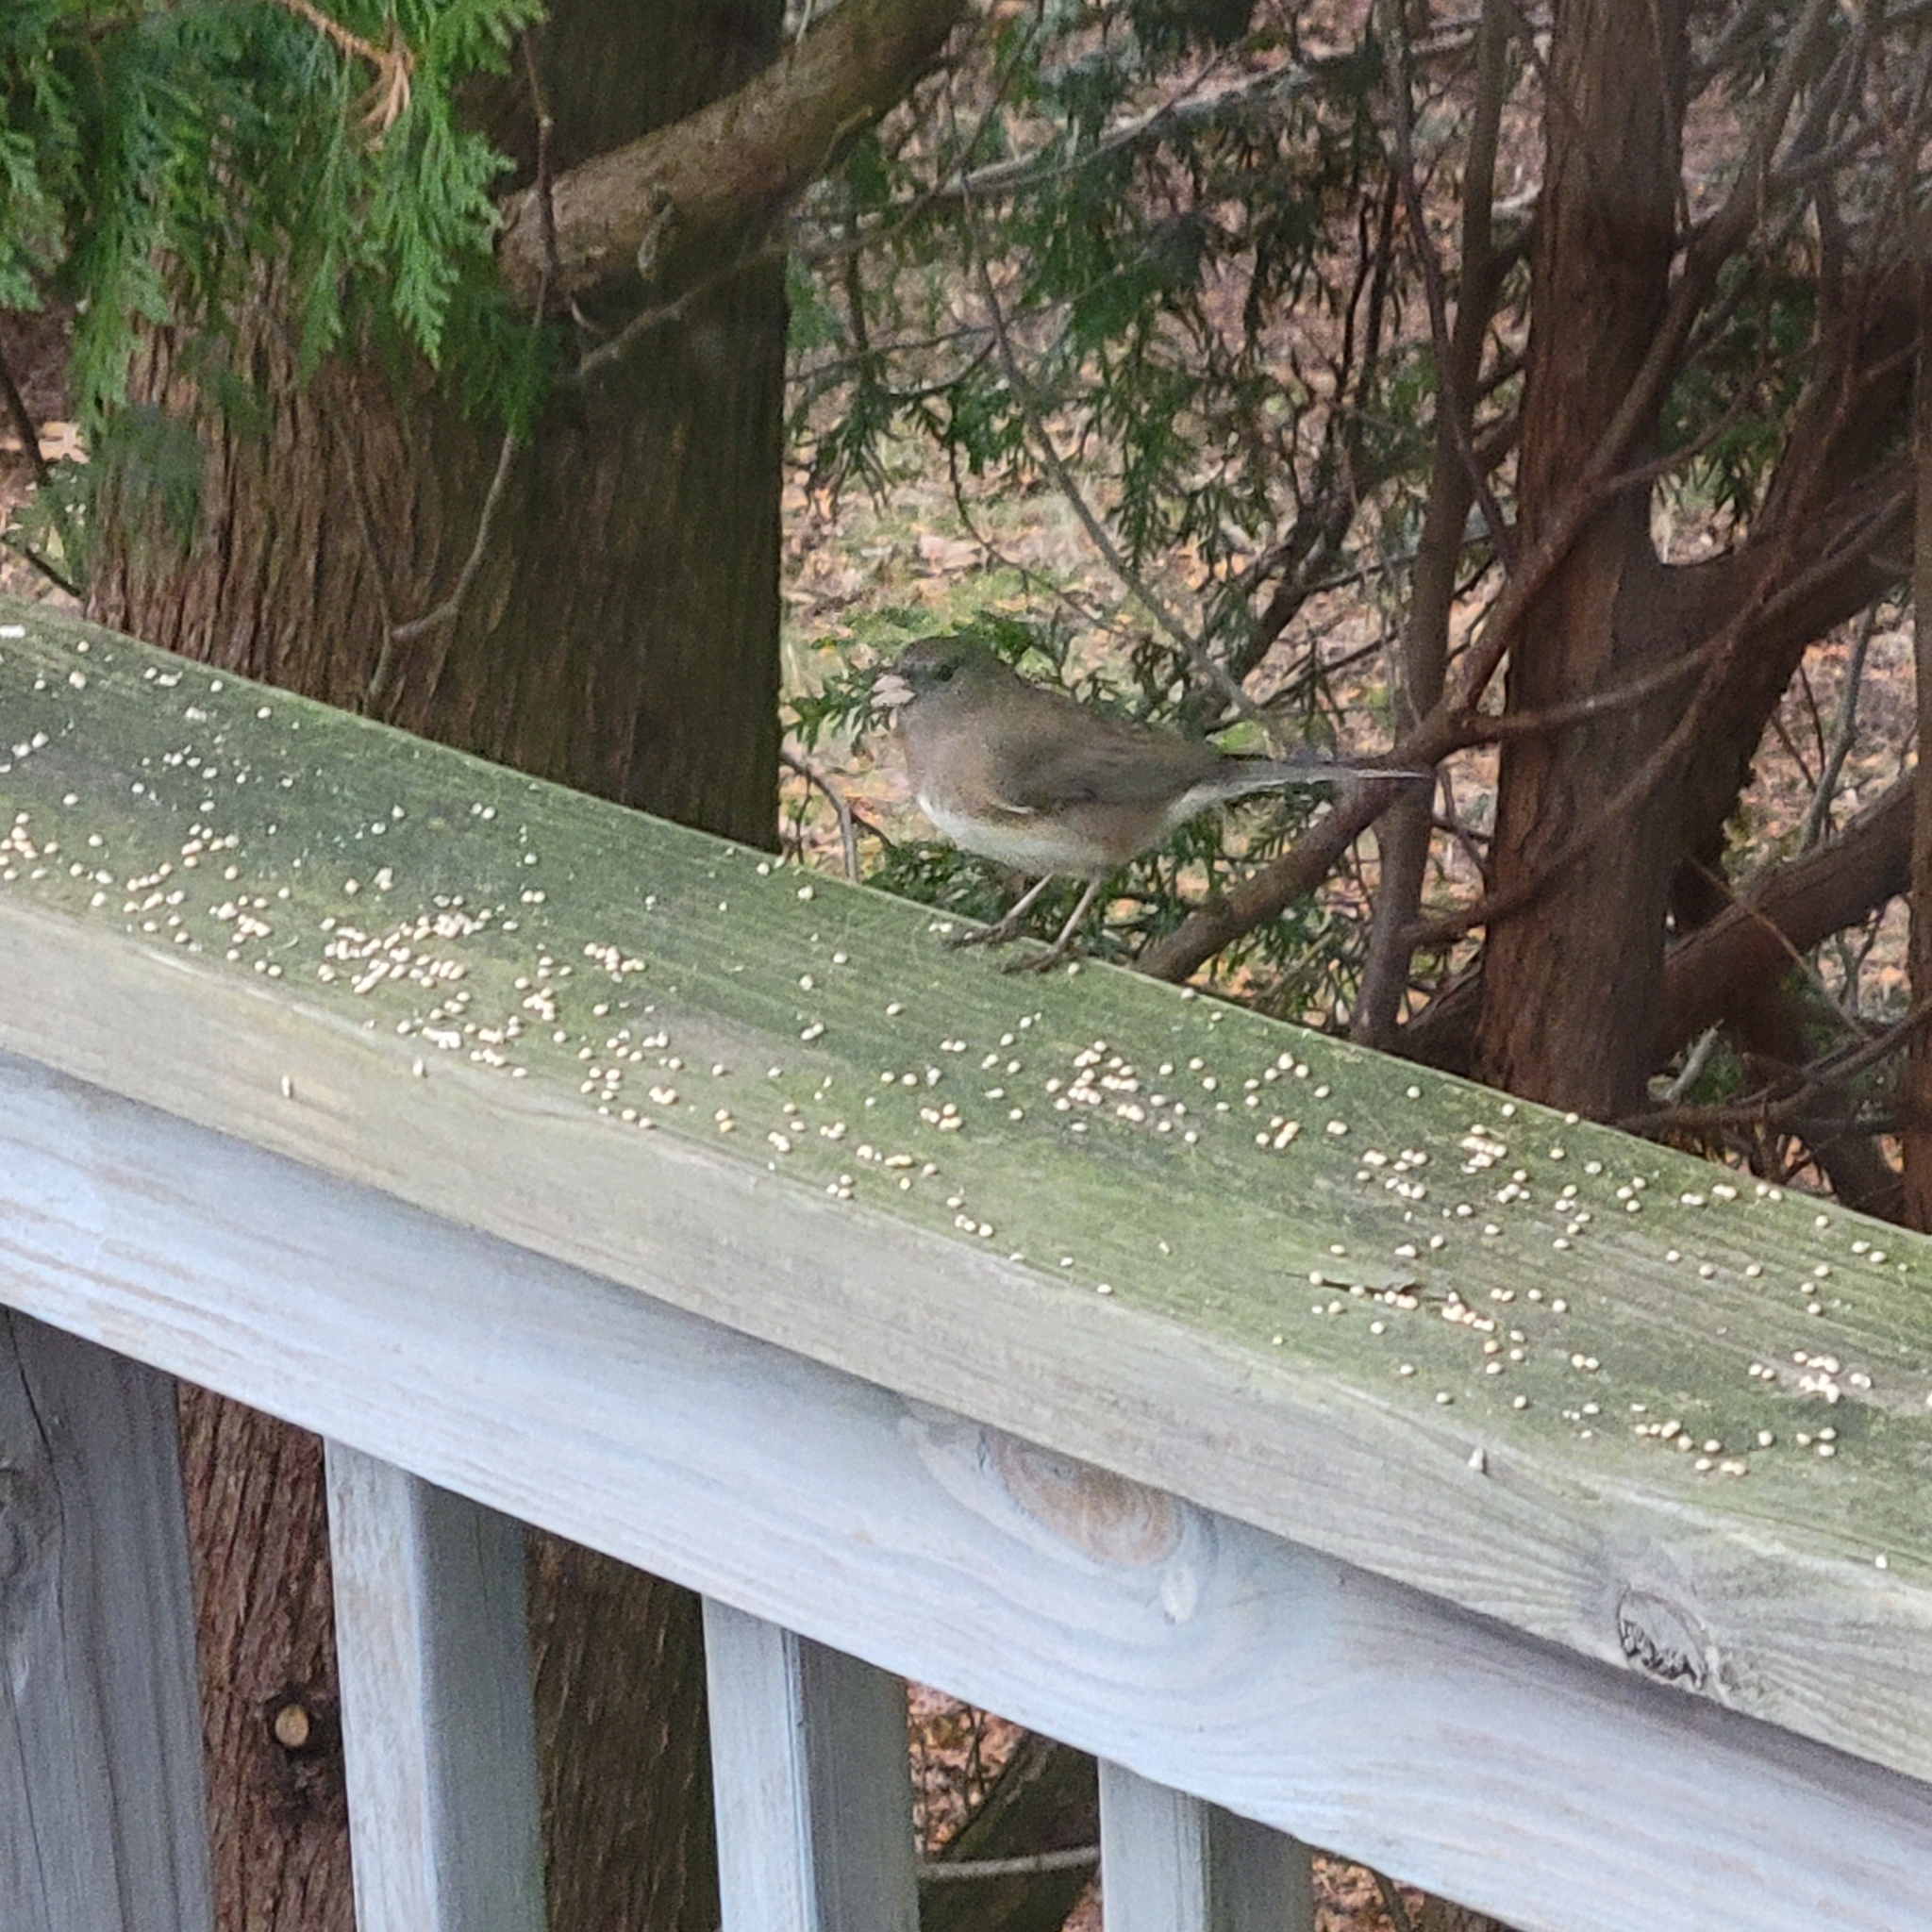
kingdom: Animalia
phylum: Chordata
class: Aves
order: Passeriformes
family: Passerellidae
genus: Junco
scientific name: Junco hyemalis
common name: Dark-eyed junco
